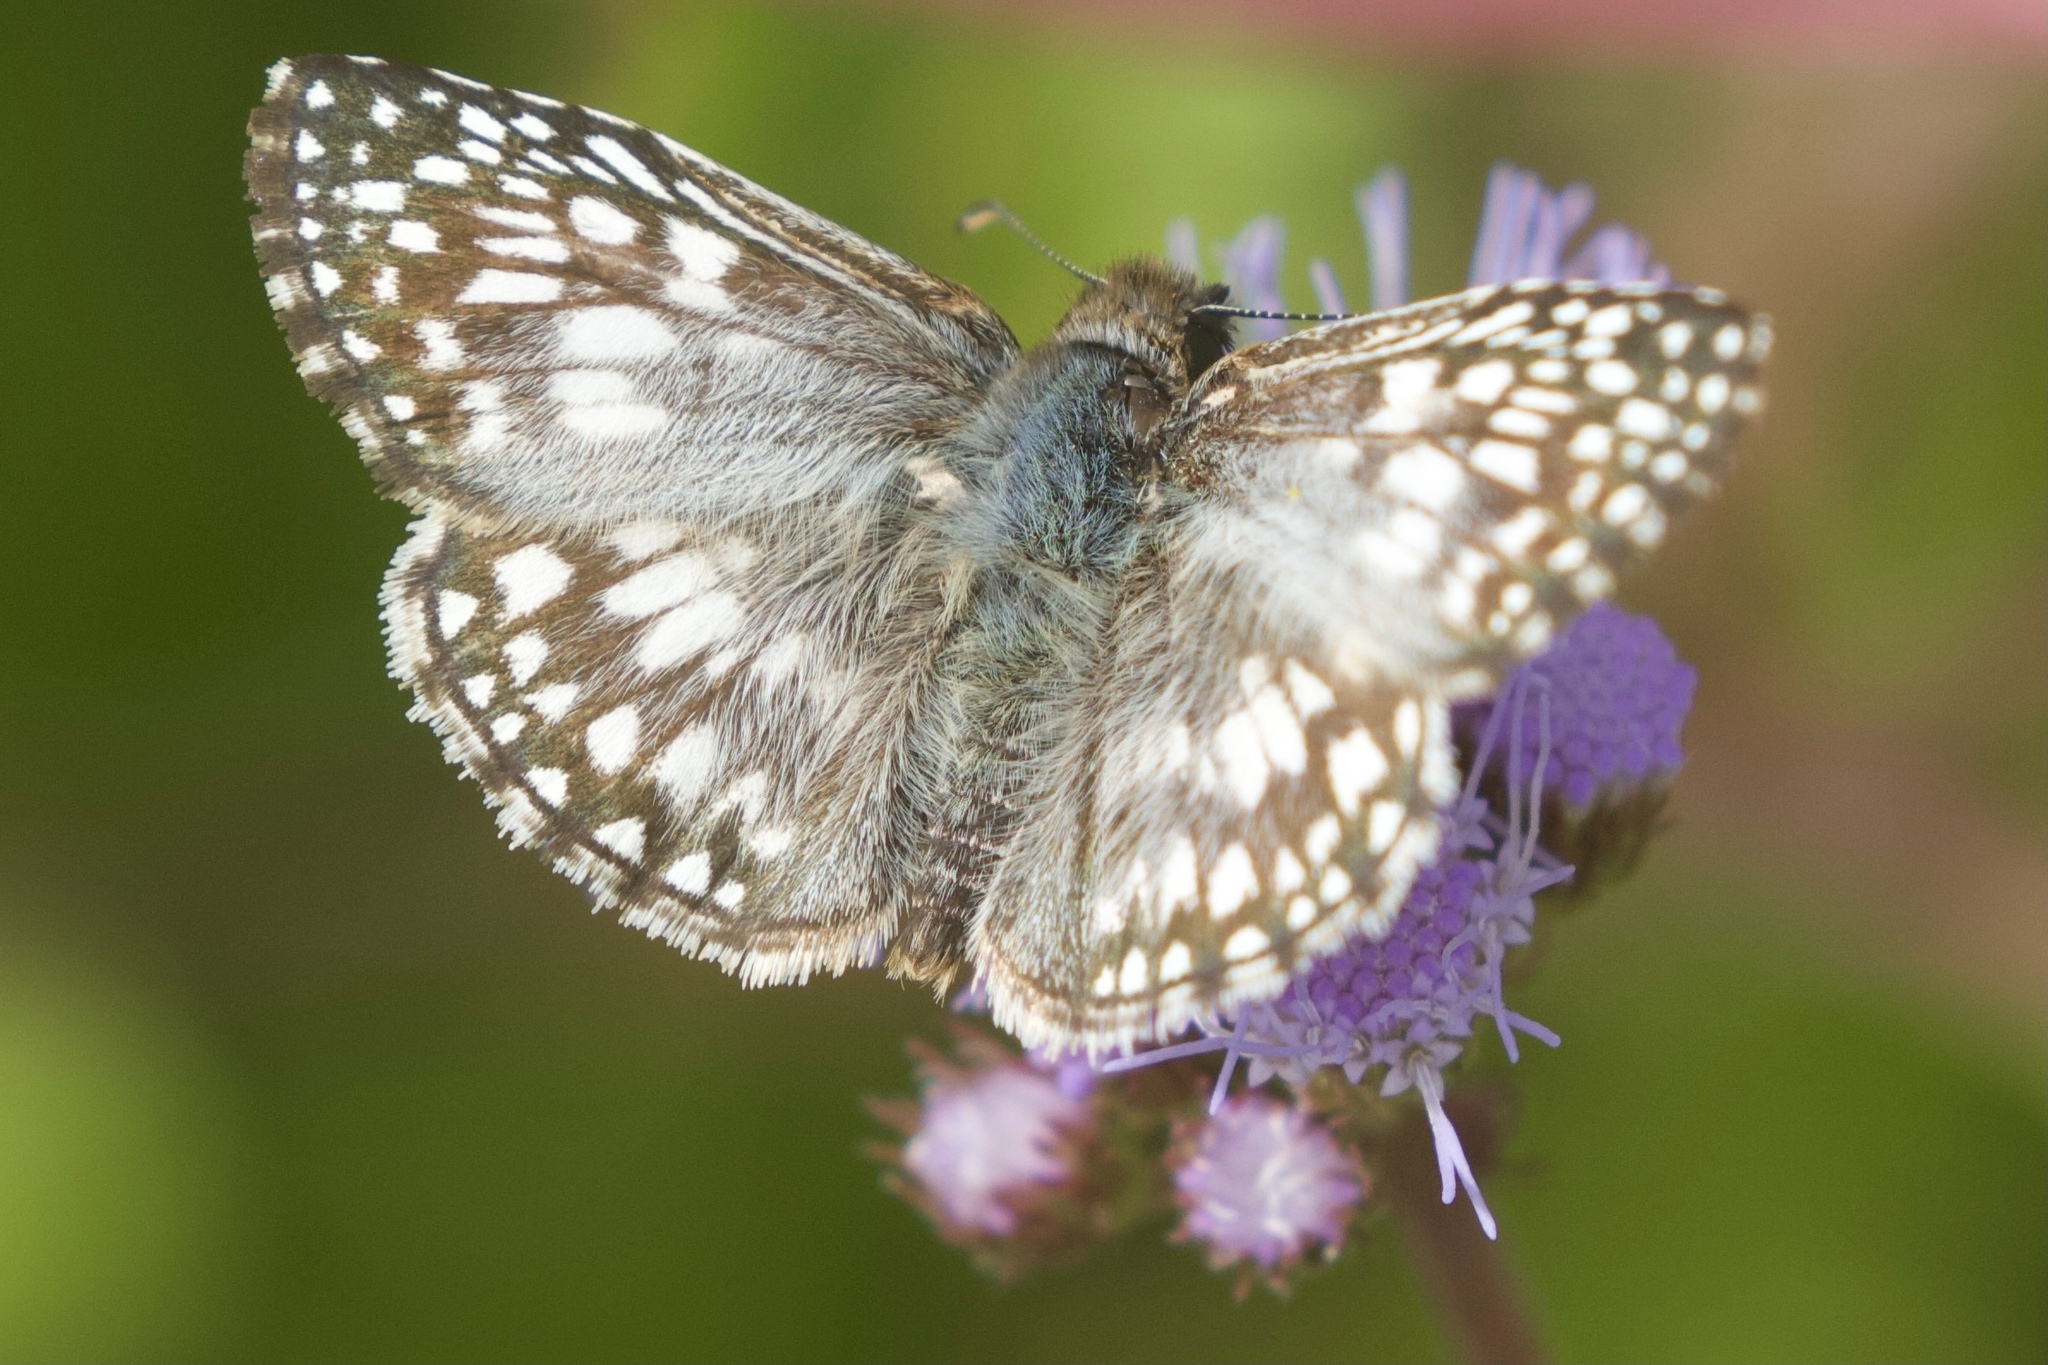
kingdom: Animalia
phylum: Arthropoda
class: Insecta
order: Lepidoptera
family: Hesperiidae
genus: Pyrgus
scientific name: Pyrgus oileus
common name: Tropical checkered-skipper
